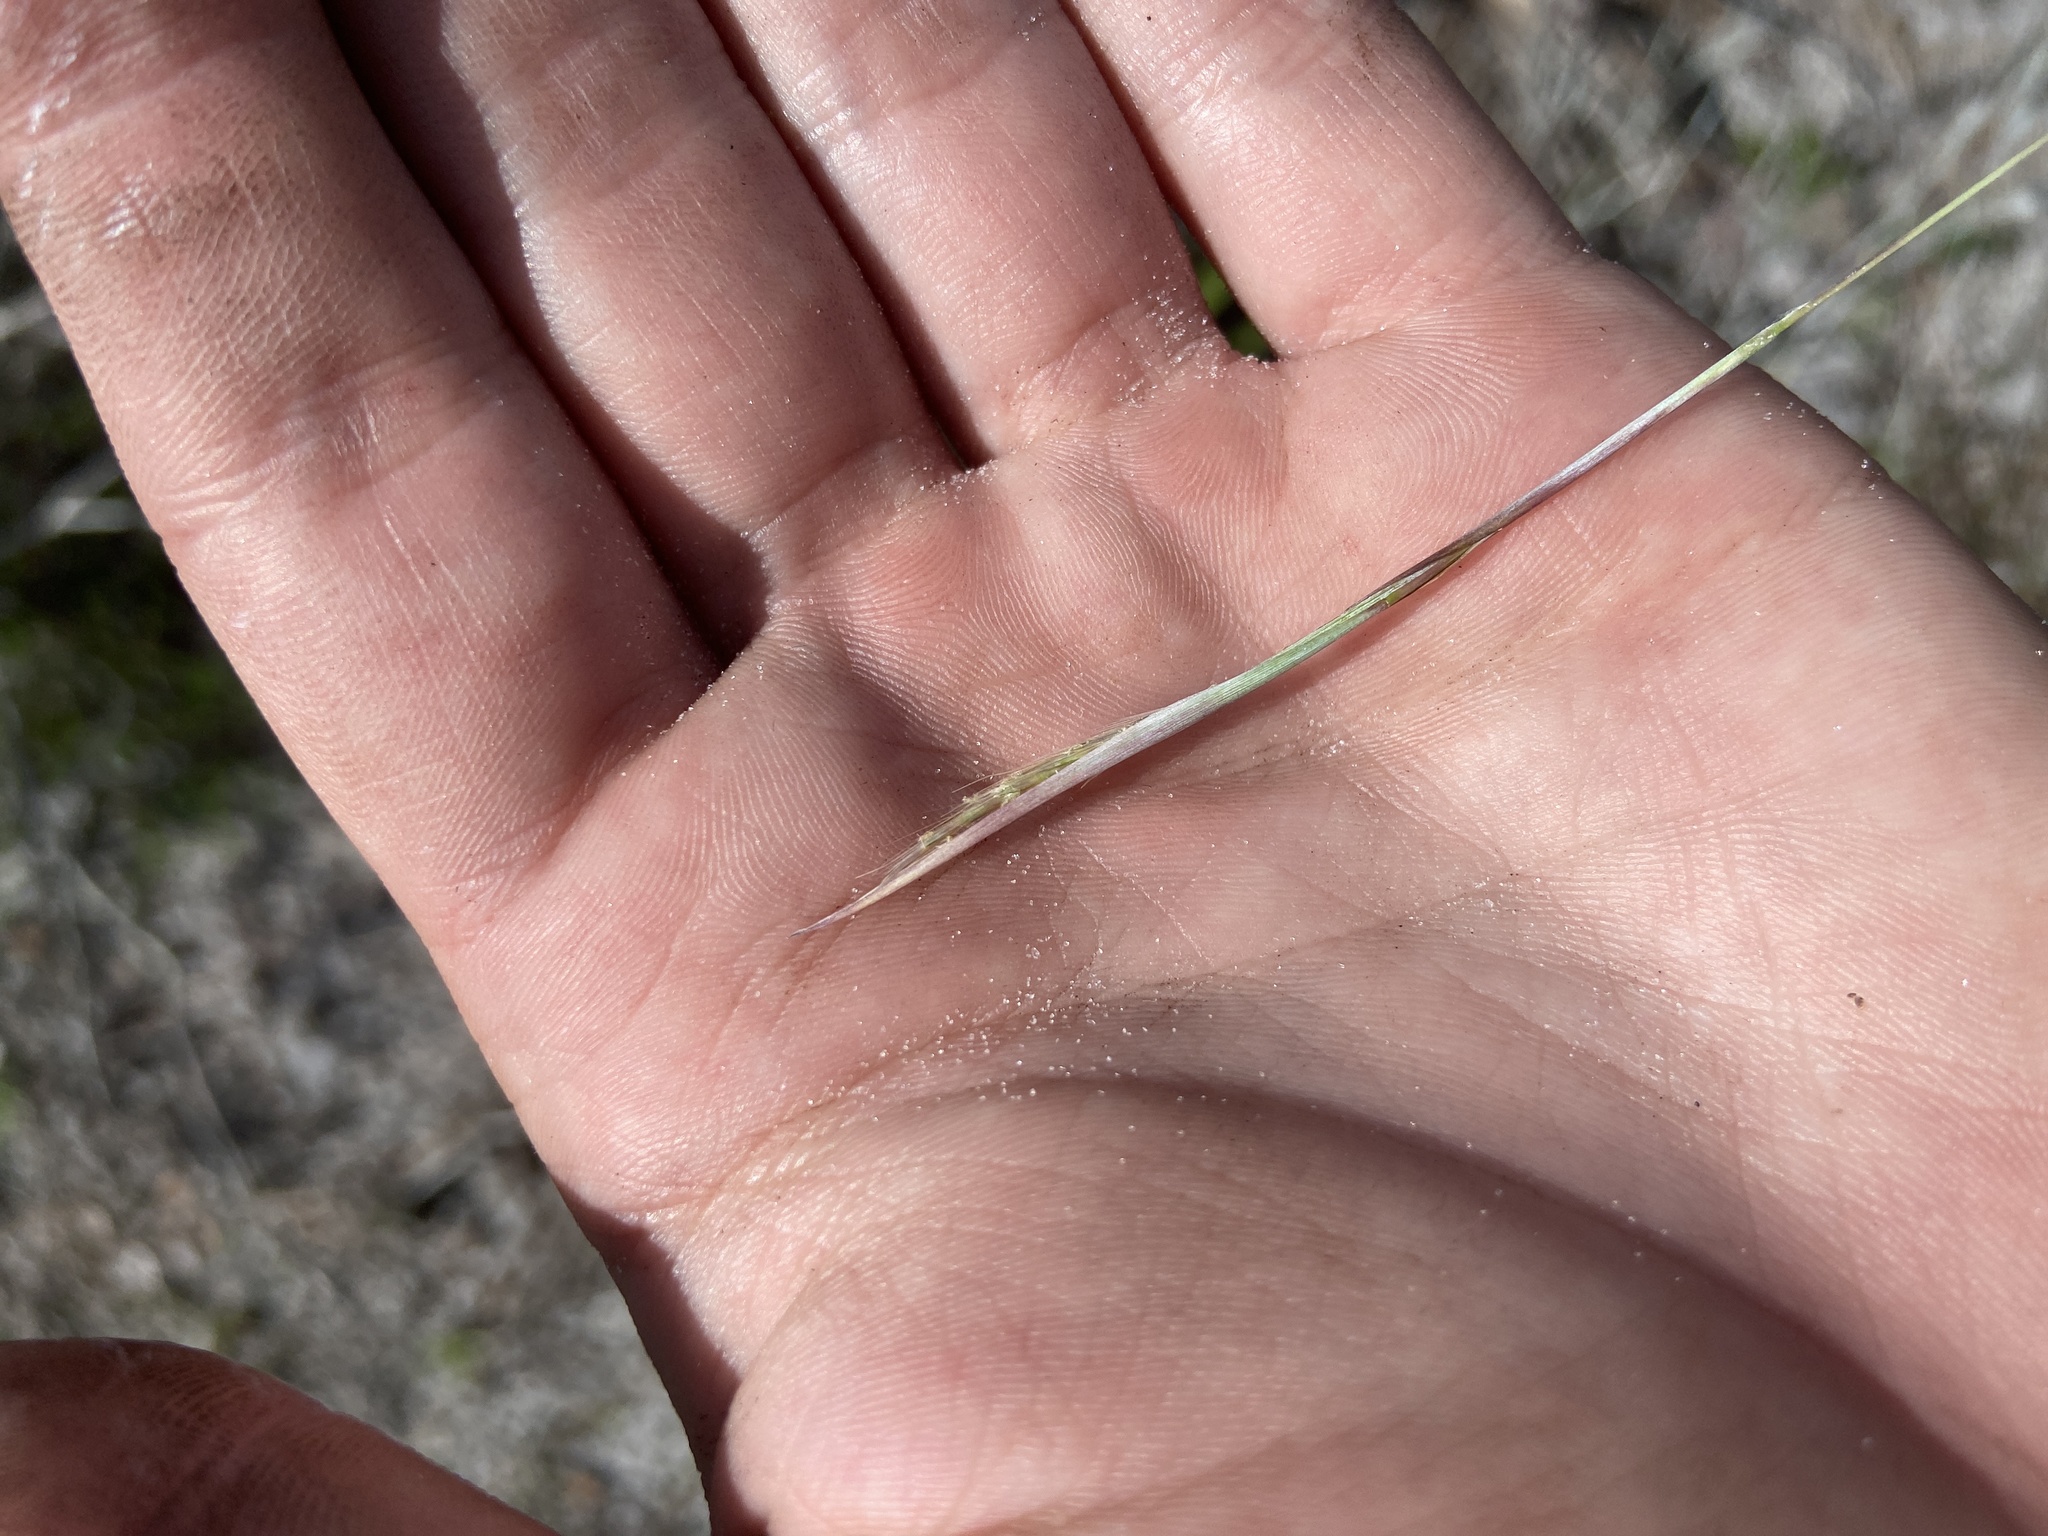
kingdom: Plantae
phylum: Tracheophyta
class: Liliopsida
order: Poales
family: Poaceae
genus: Andropogon
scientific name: Andropogon capillipes
